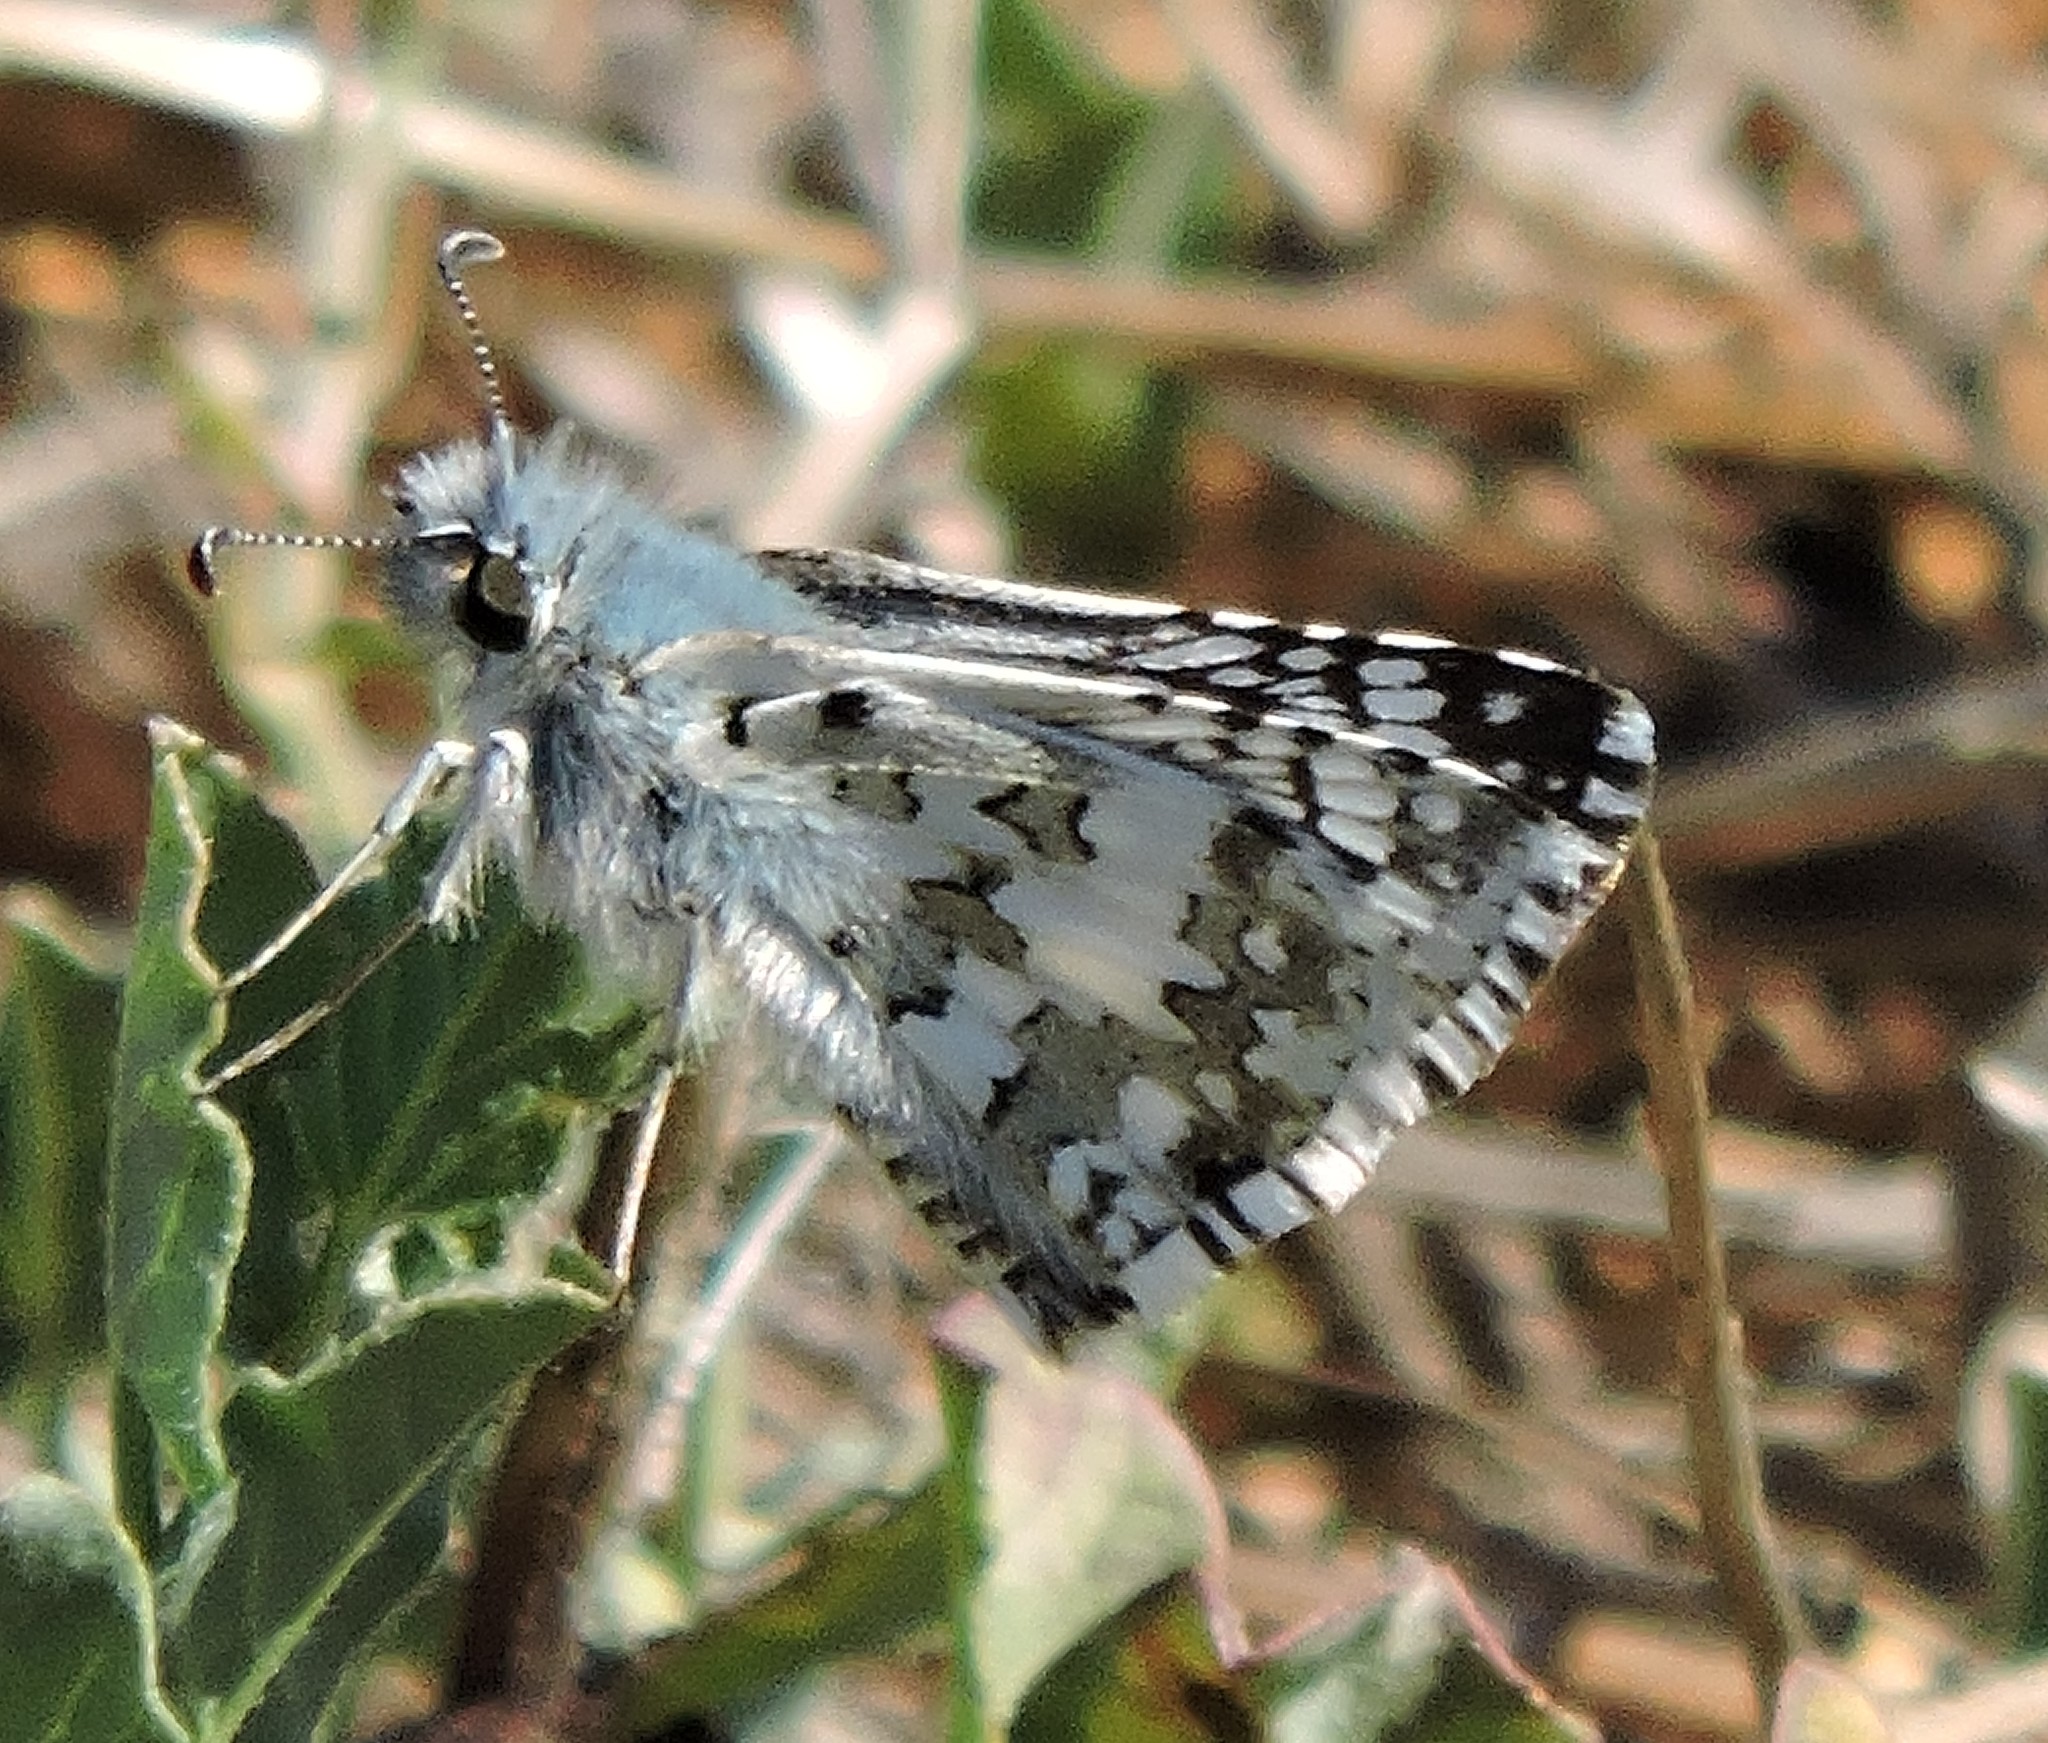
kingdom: Animalia
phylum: Arthropoda
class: Insecta
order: Lepidoptera
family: Hesperiidae
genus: Burnsius
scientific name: Burnsius communis
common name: Common checkered-skipper
